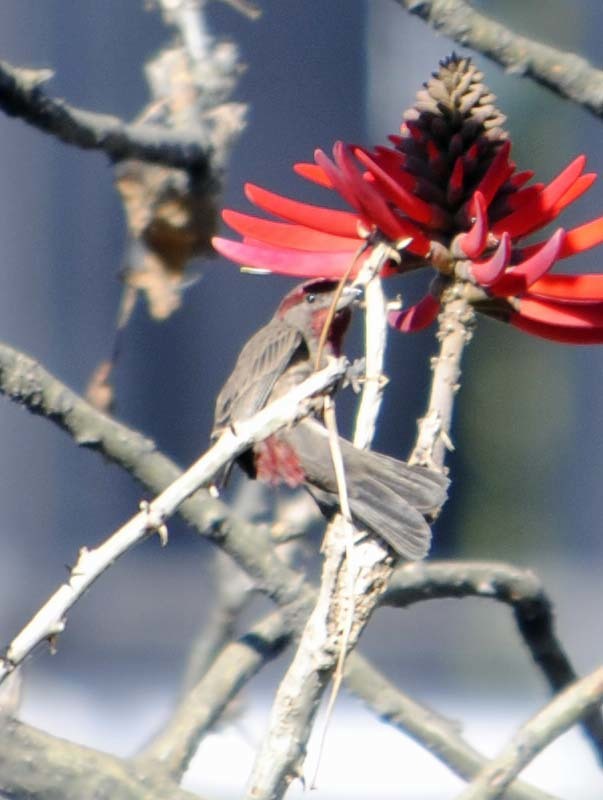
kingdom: Animalia
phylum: Chordata
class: Aves
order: Passeriformes
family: Fringillidae
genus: Haemorhous
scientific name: Haemorhous mexicanus
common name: House finch
